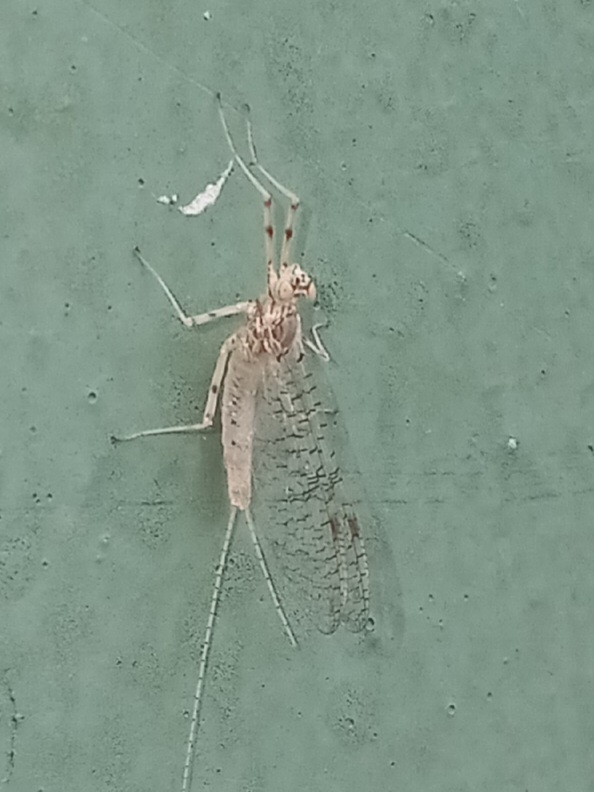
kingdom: Animalia
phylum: Arthropoda
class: Insecta
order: Ephemeroptera
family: Heptageniidae
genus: Stenonema
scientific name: Stenonema femoratum
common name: Dark cahill
